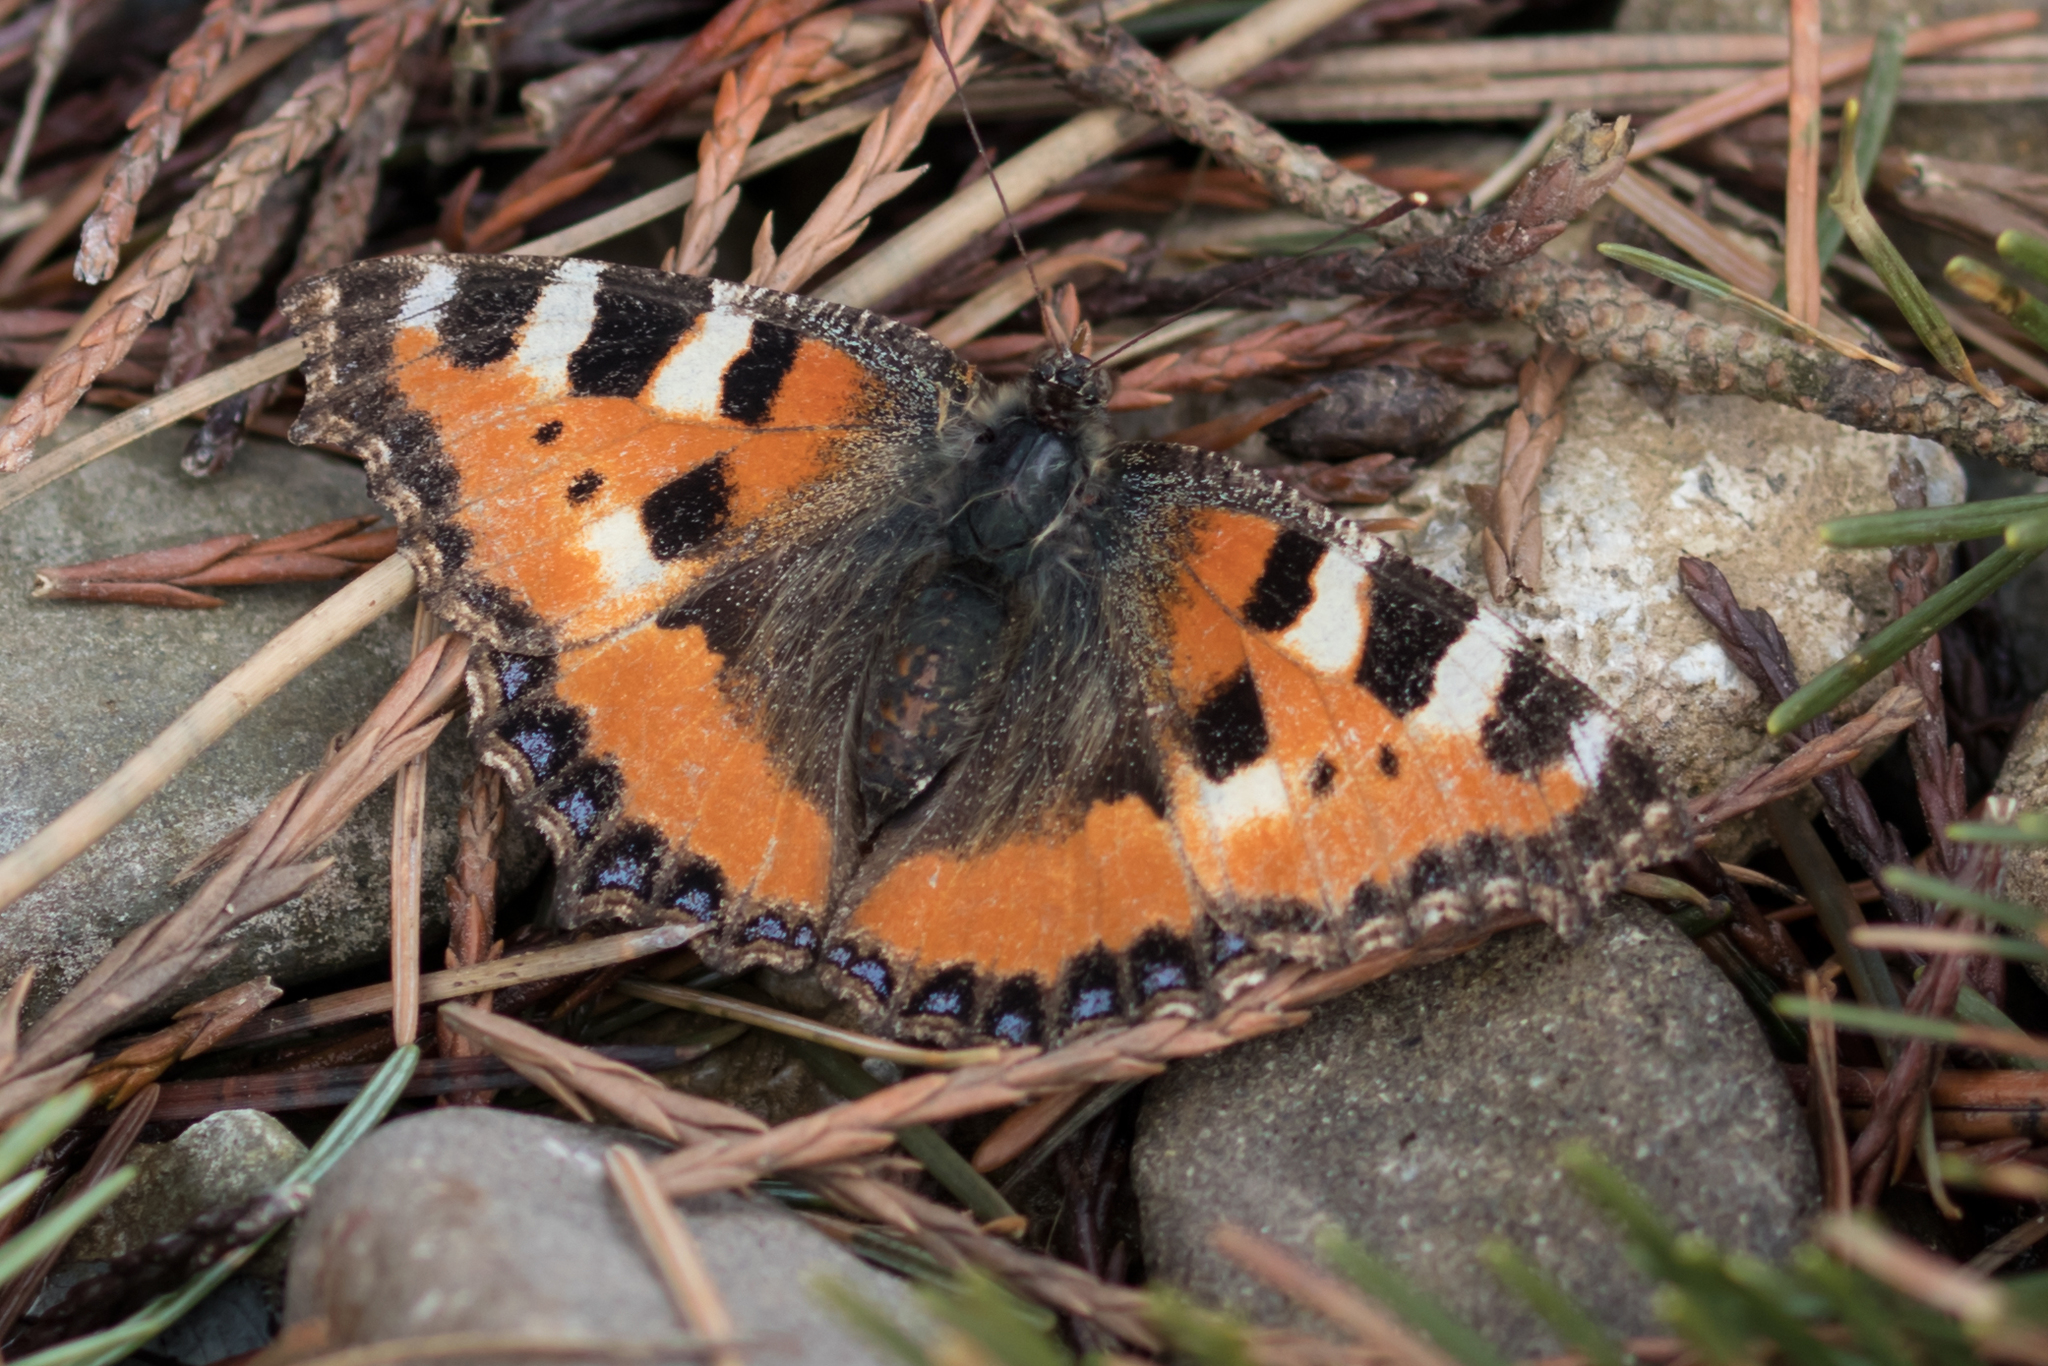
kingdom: Animalia
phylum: Arthropoda
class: Insecta
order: Lepidoptera
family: Nymphalidae
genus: Aglais
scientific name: Aglais urticae
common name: Small tortoiseshell
